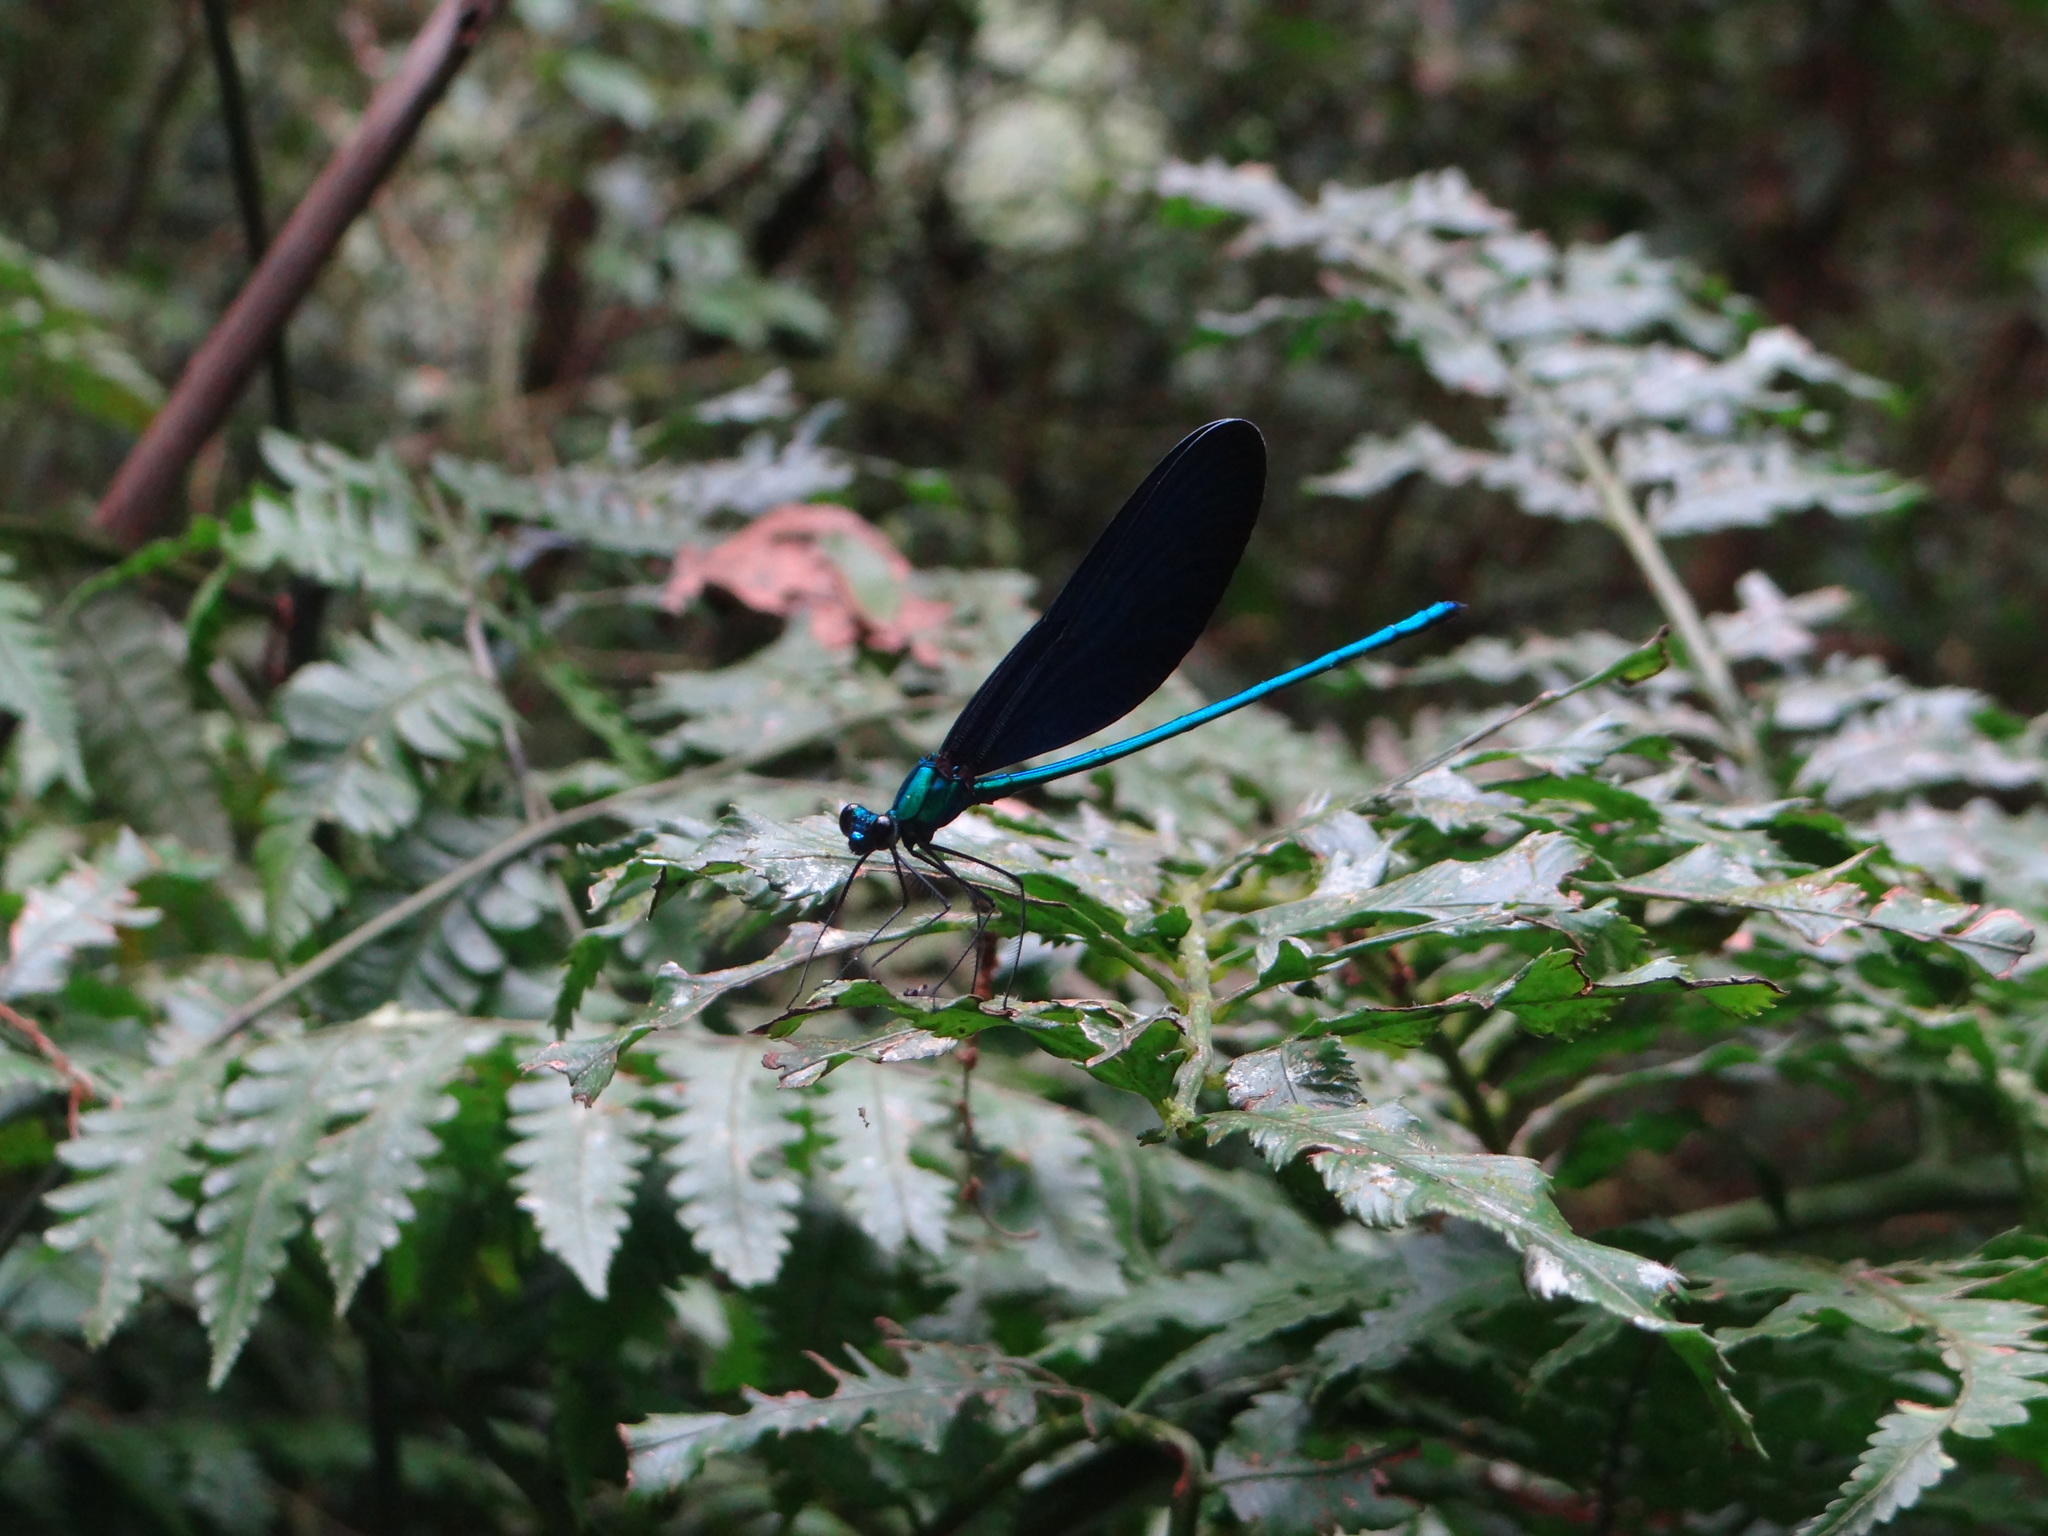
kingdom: Animalia
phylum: Arthropoda
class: Insecta
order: Odonata
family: Calopterygidae
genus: Matrona
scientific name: Matrona cyanoptera
